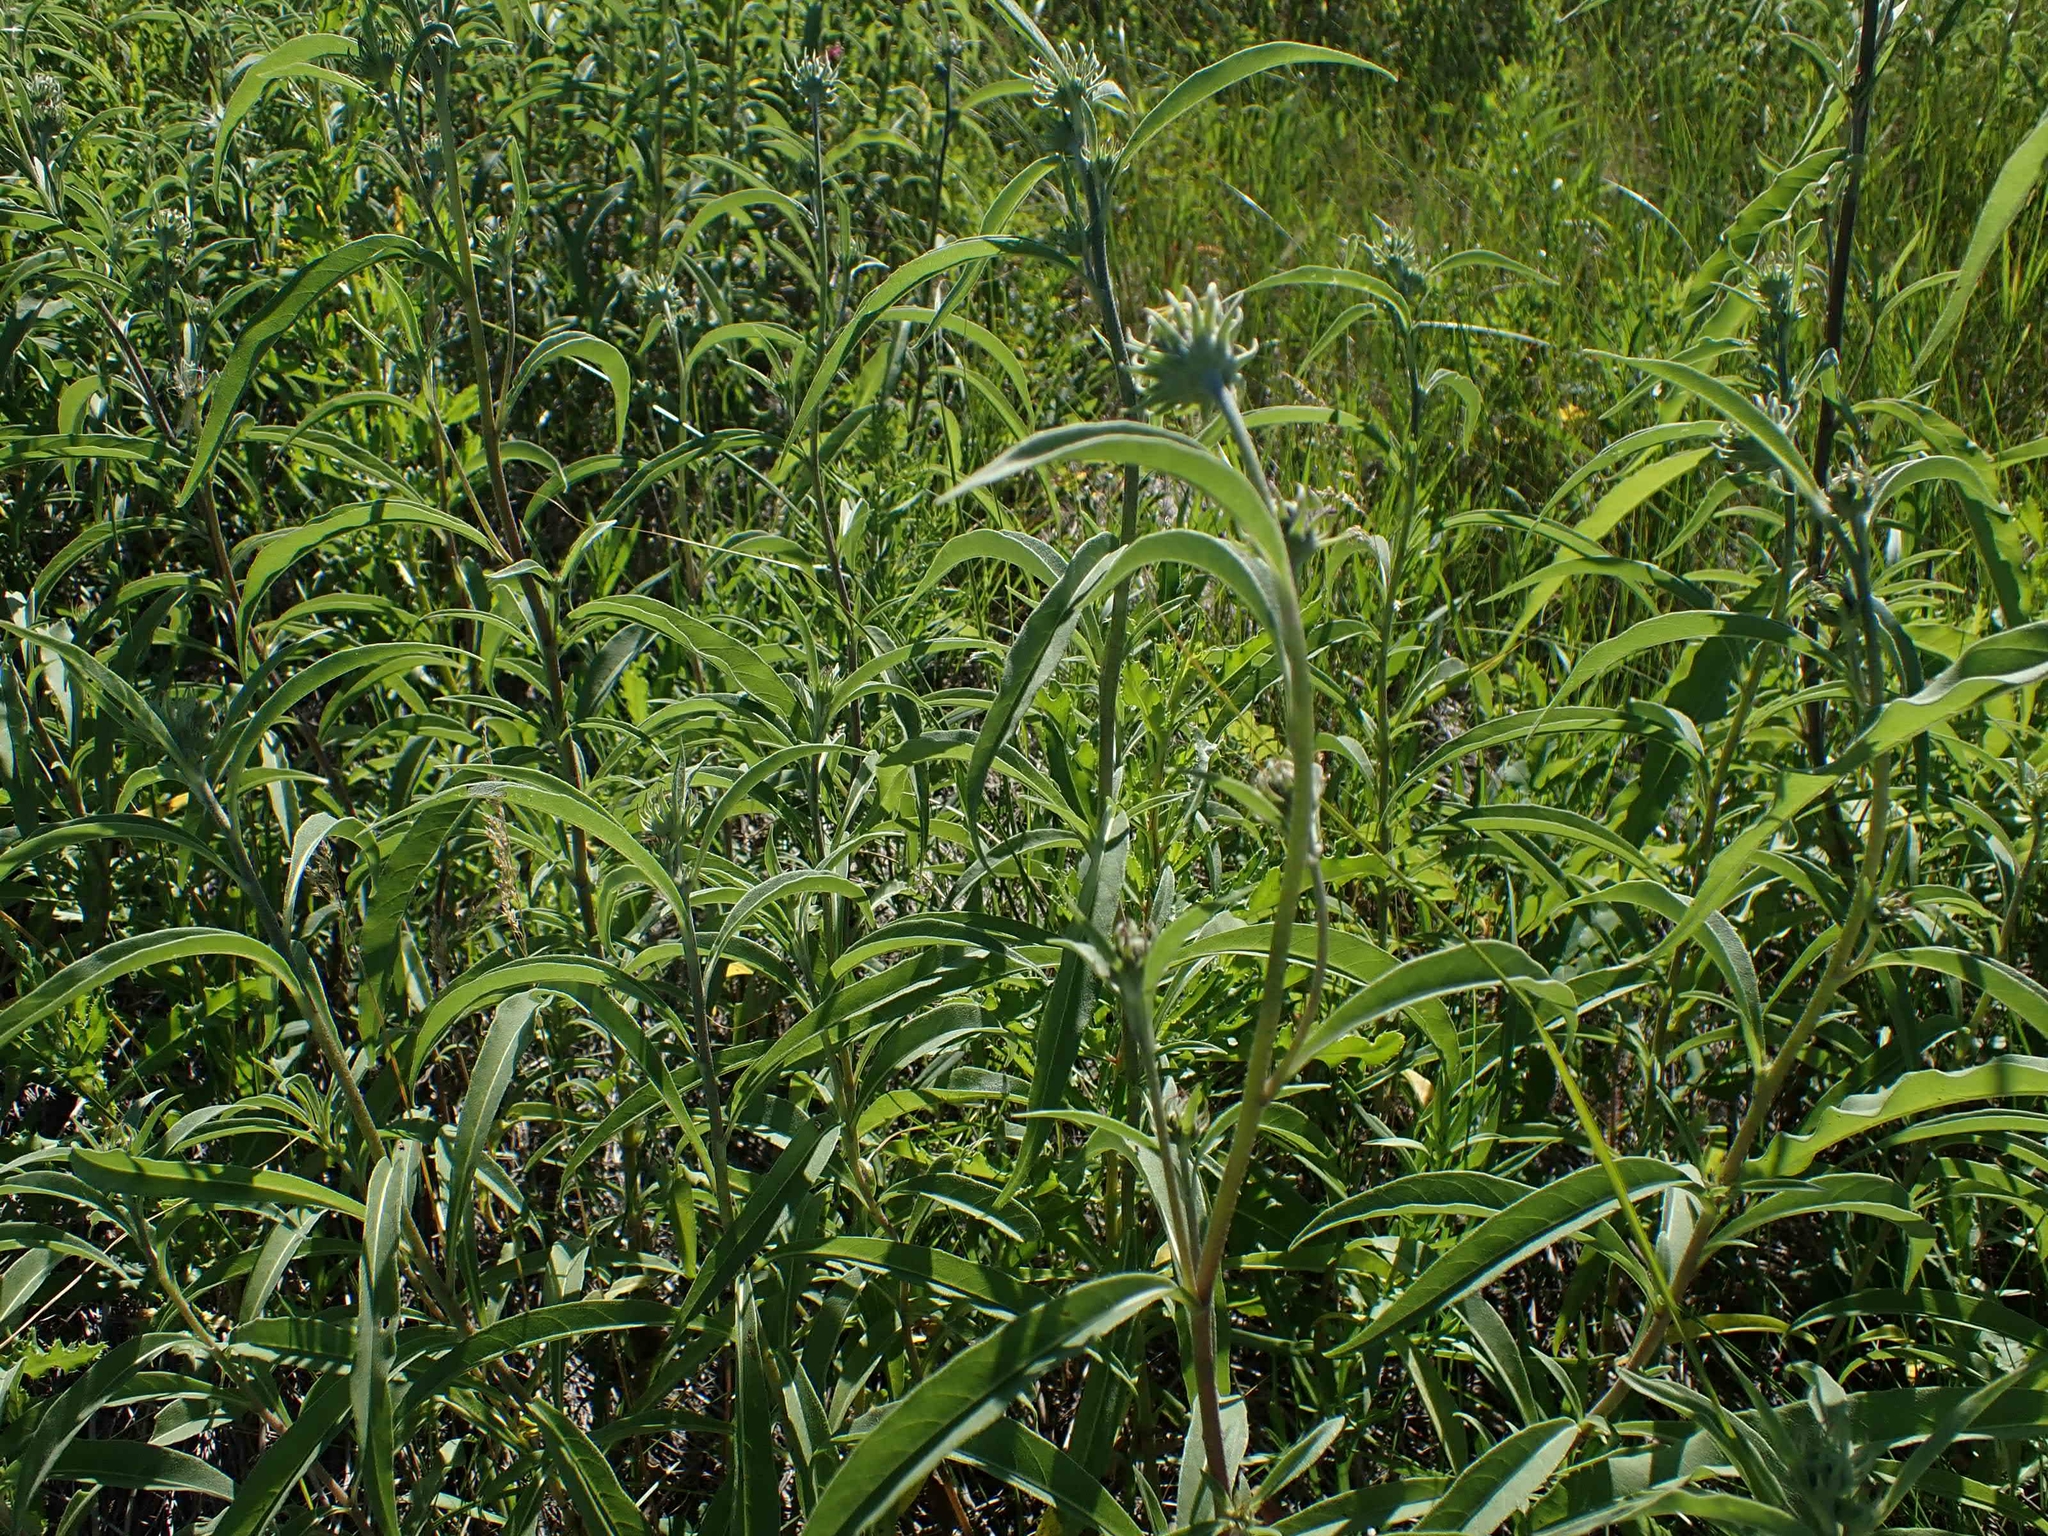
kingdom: Plantae
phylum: Tracheophyta
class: Magnoliopsida
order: Asterales
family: Asteraceae
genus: Helianthus
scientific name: Helianthus maximiliani
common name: Maximilian's sunflower
